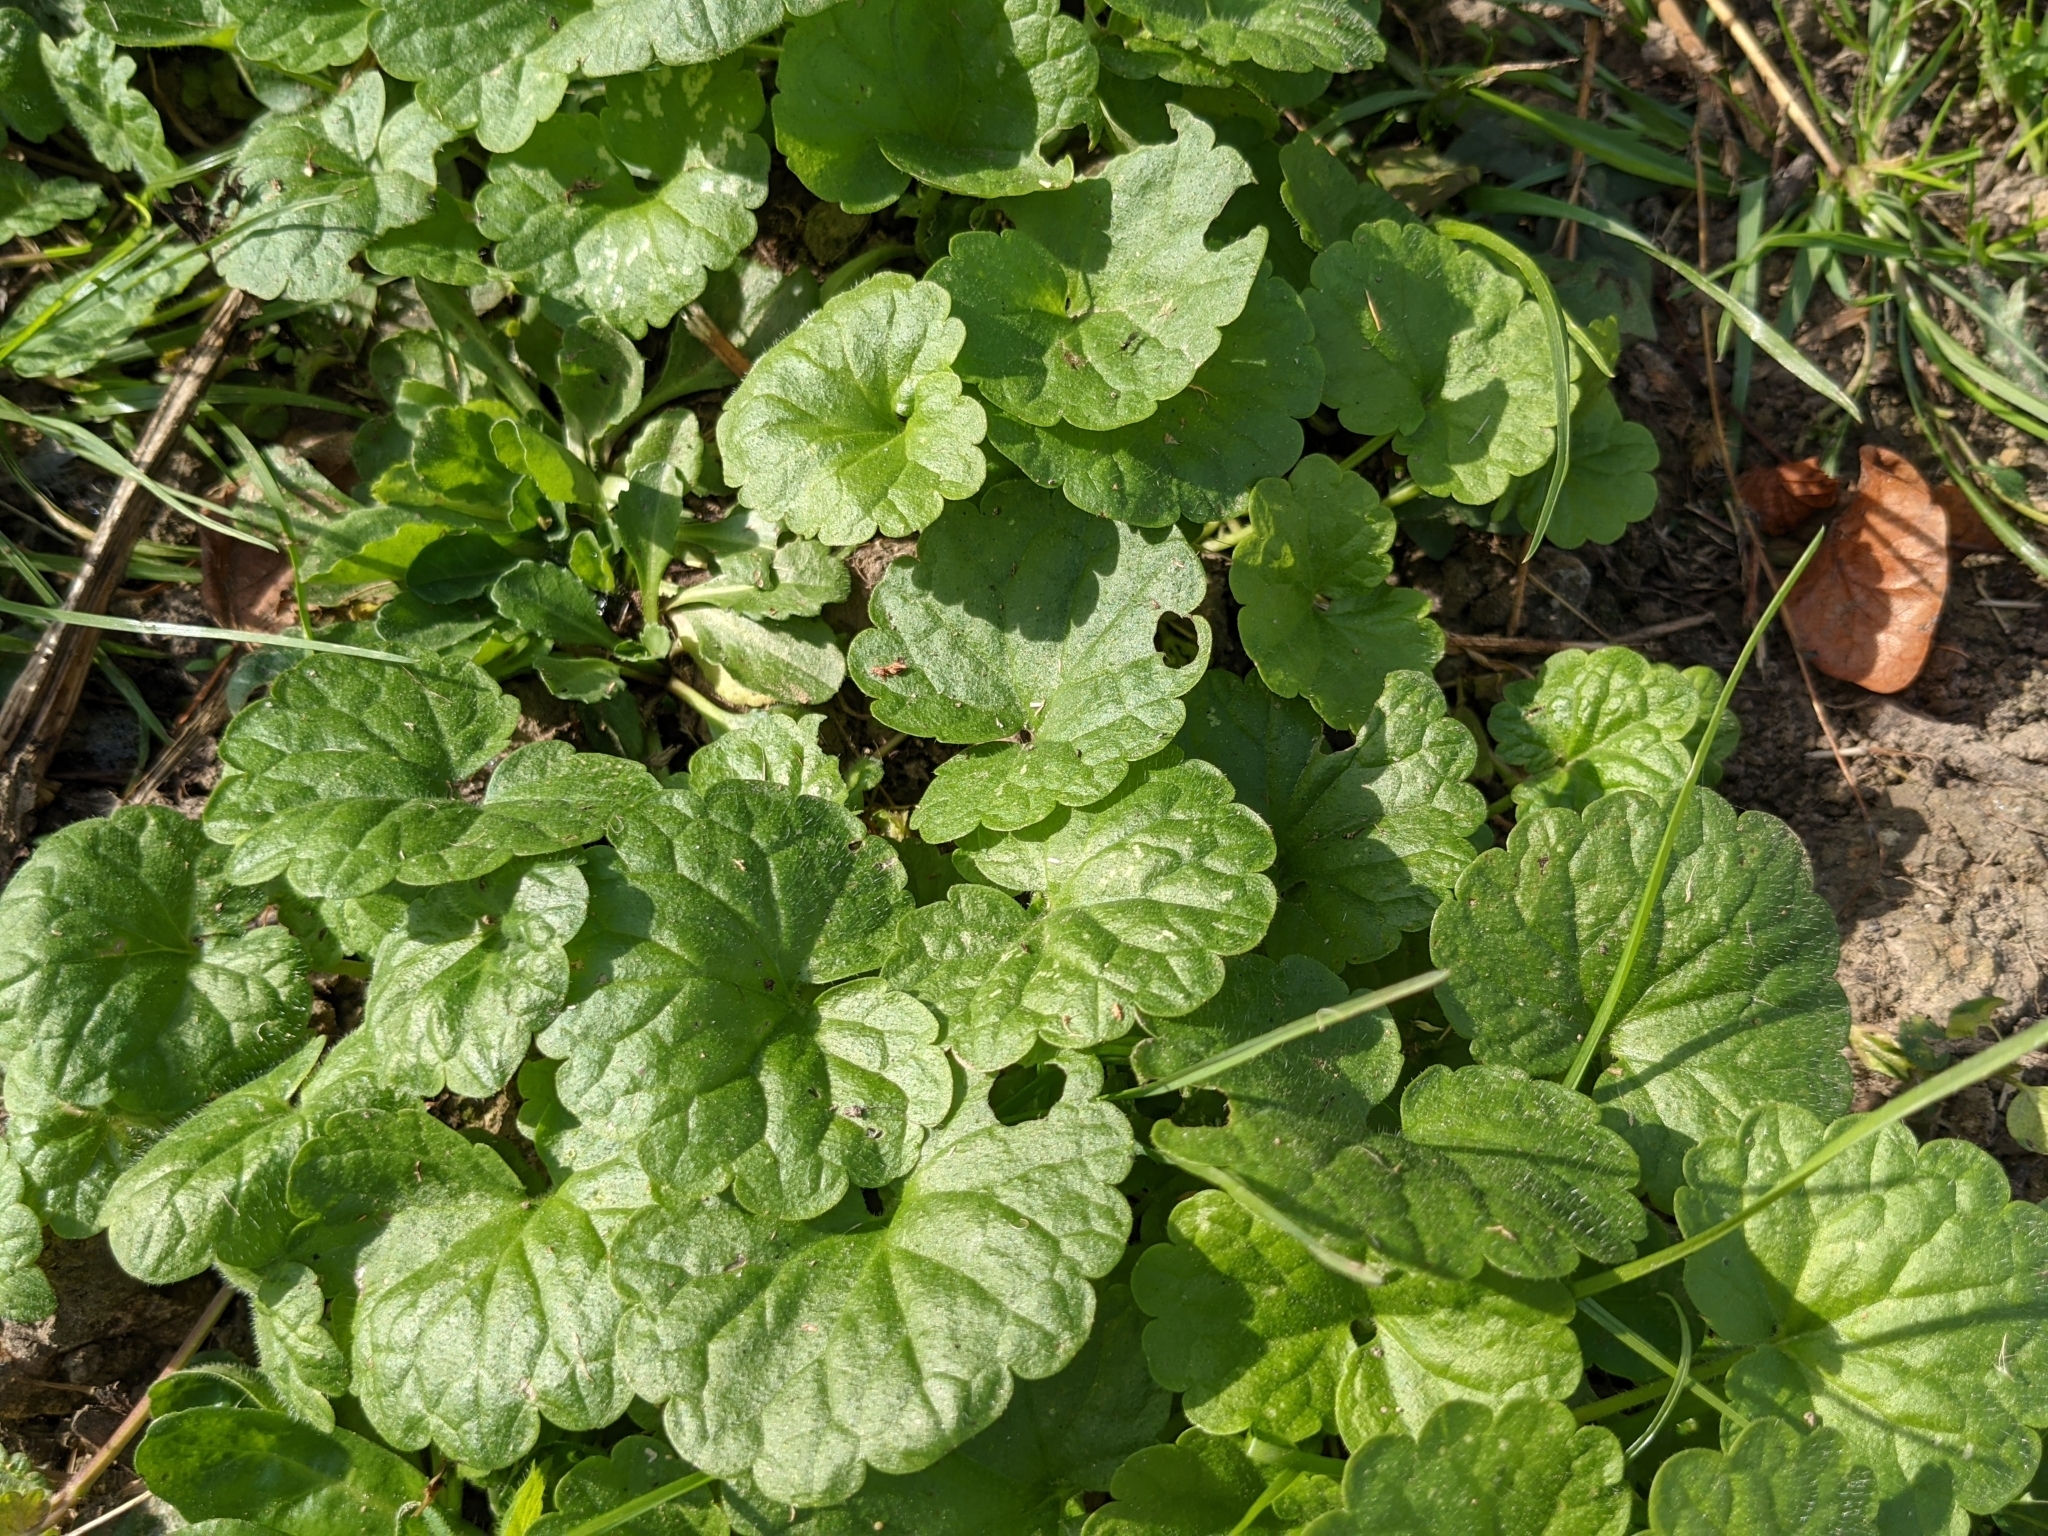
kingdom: Plantae
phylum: Tracheophyta
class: Magnoliopsida
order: Lamiales
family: Lamiaceae
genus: Glechoma
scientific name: Glechoma hederacea
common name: Ground ivy
